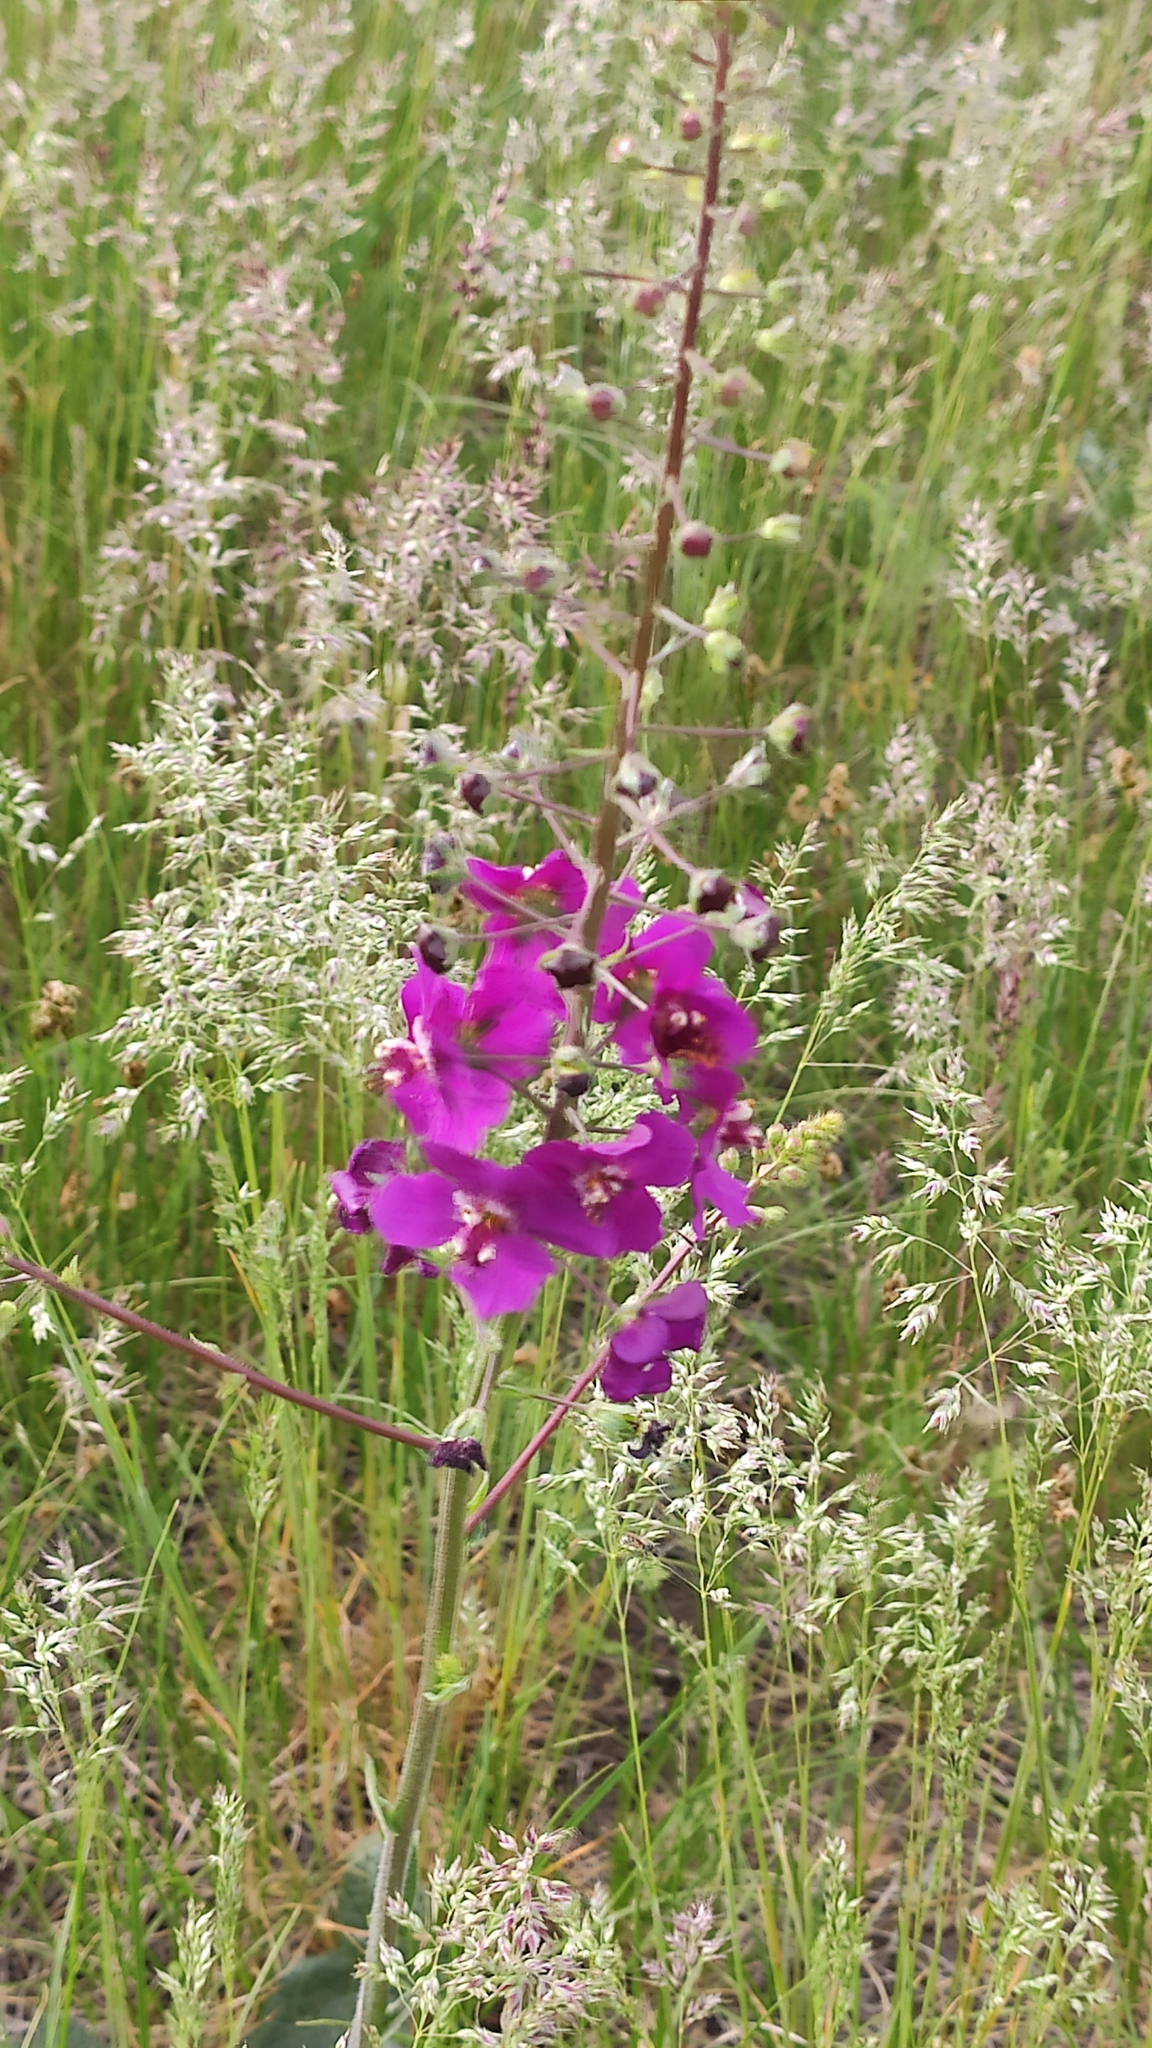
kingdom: Plantae
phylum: Tracheophyta
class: Magnoliopsida
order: Lamiales
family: Scrophulariaceae
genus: Verbascum
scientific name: Verbascum phoeniceum
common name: Purple mullein
